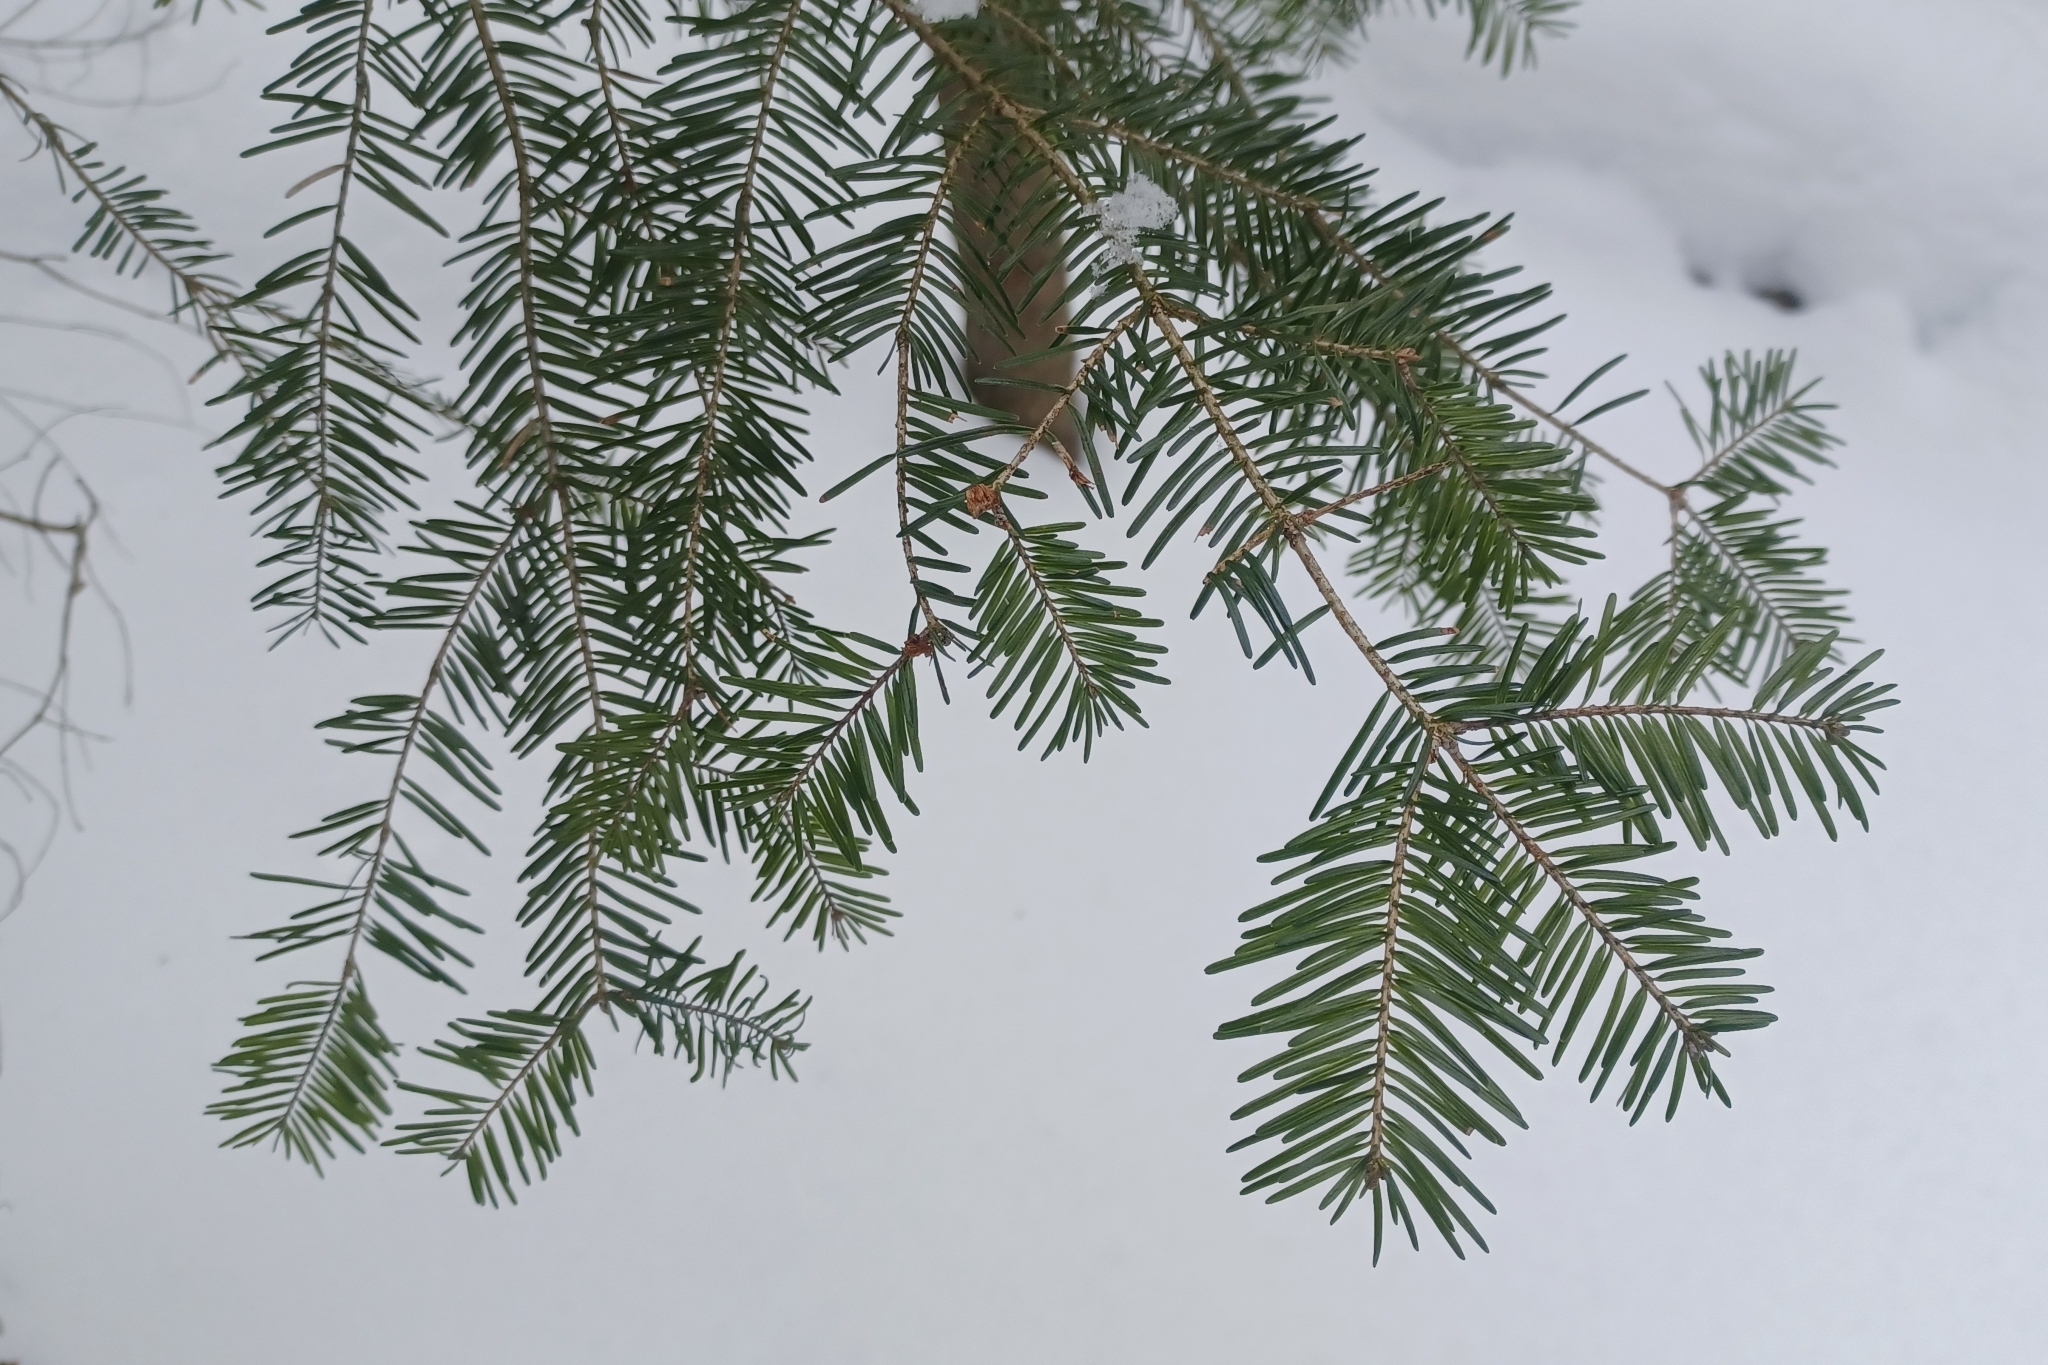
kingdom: Plantae
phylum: Tracheophyta
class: Pinopsida
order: Pinales
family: Pinaceae
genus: Abies
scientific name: Abies balsamea
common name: Balsam fir
